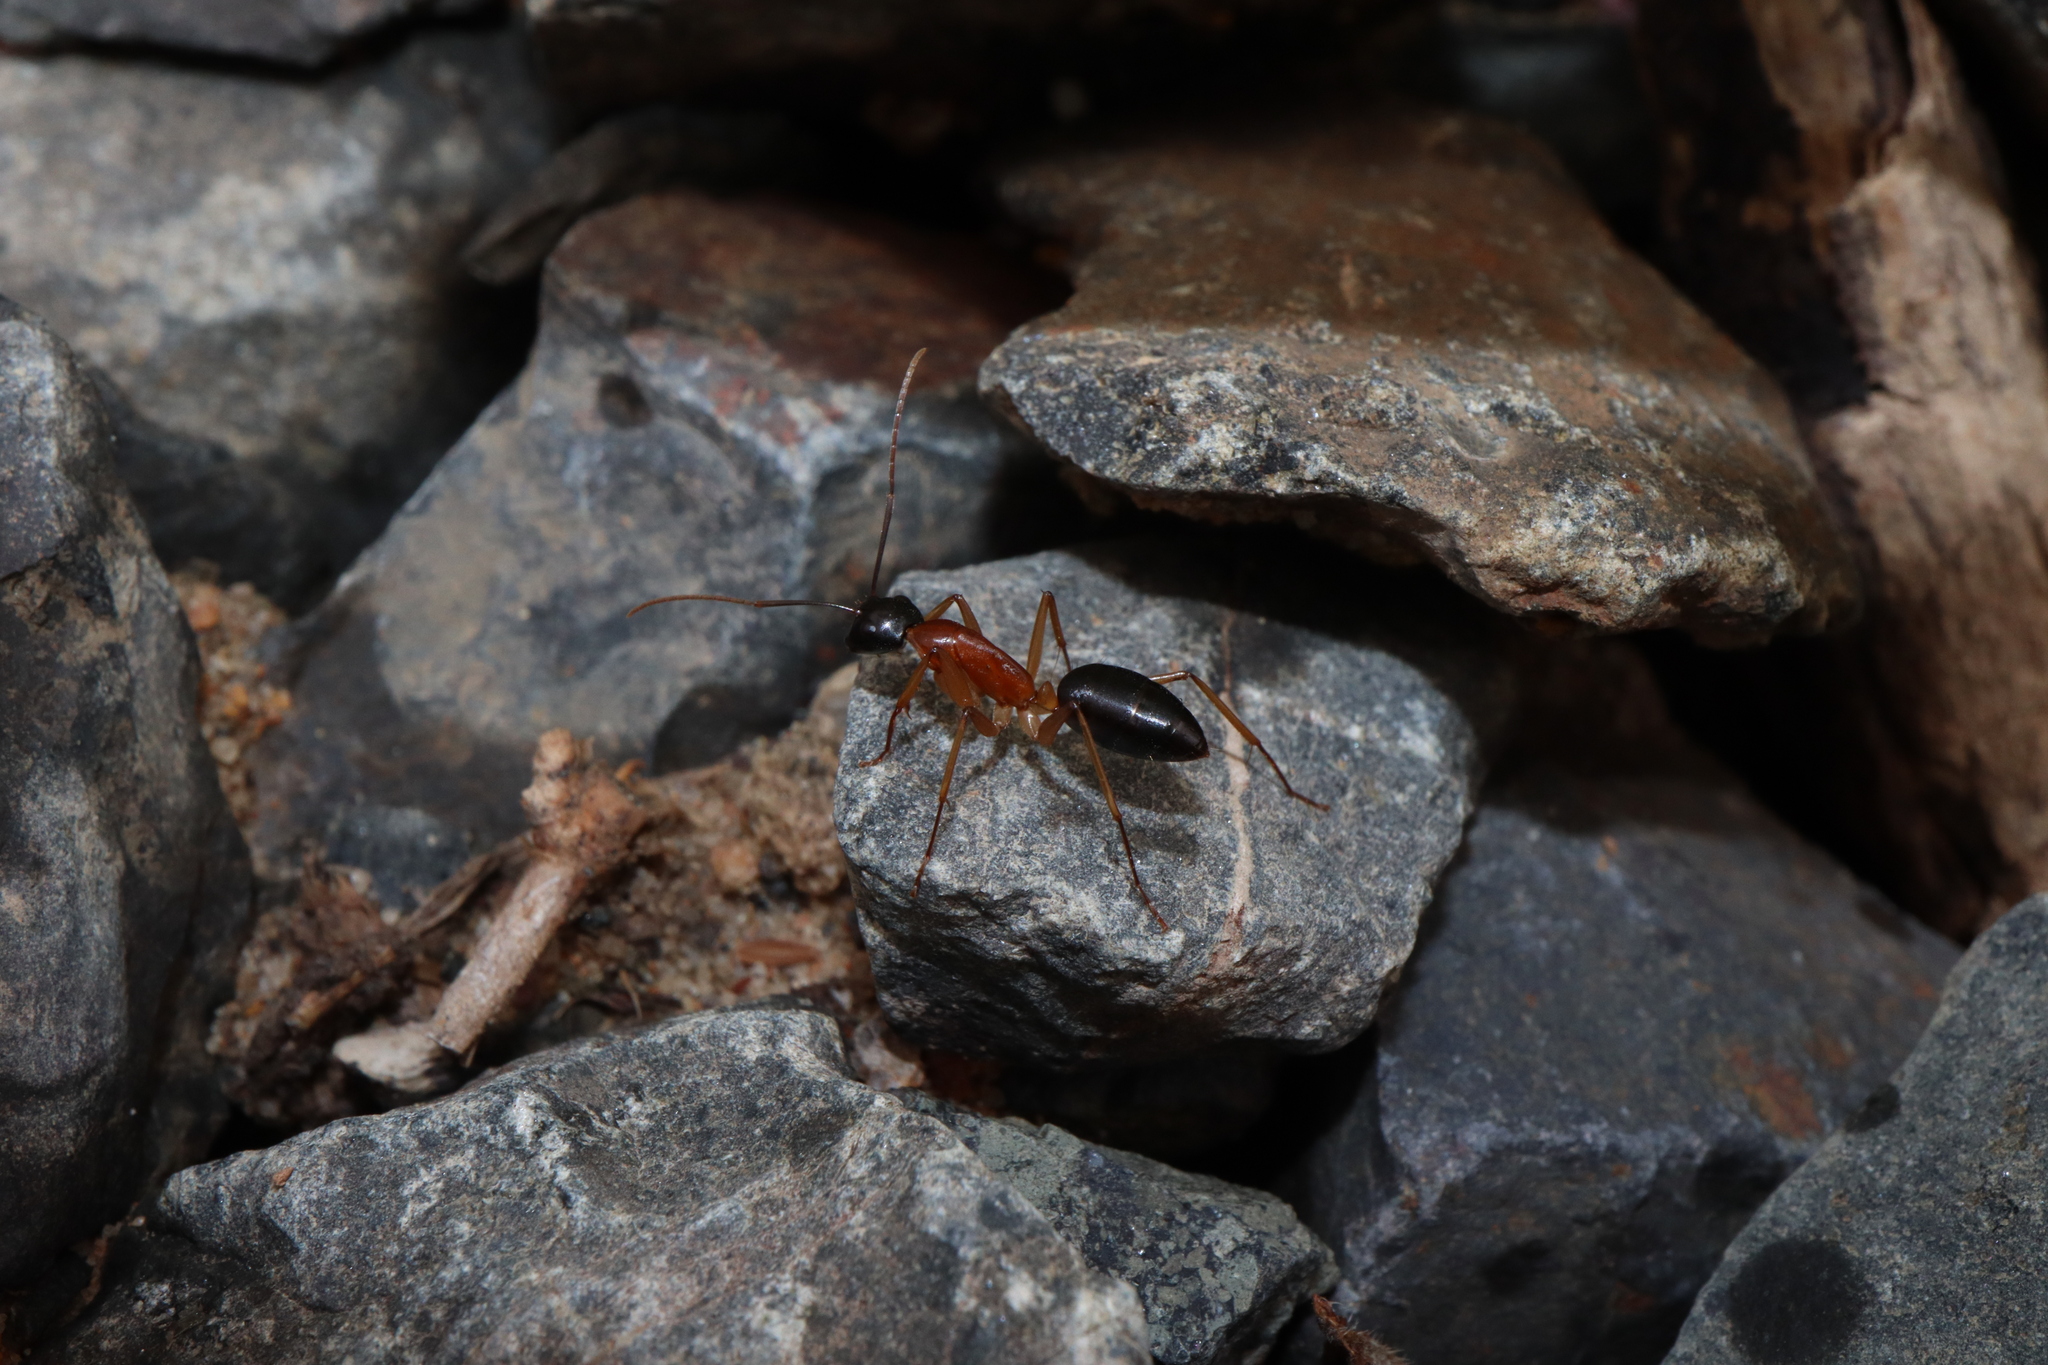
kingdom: Animalia
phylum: Arthropoda
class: Insecta
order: Hymenoptera
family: Formicidae
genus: Camponotus
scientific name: Camponotus nigriceps
